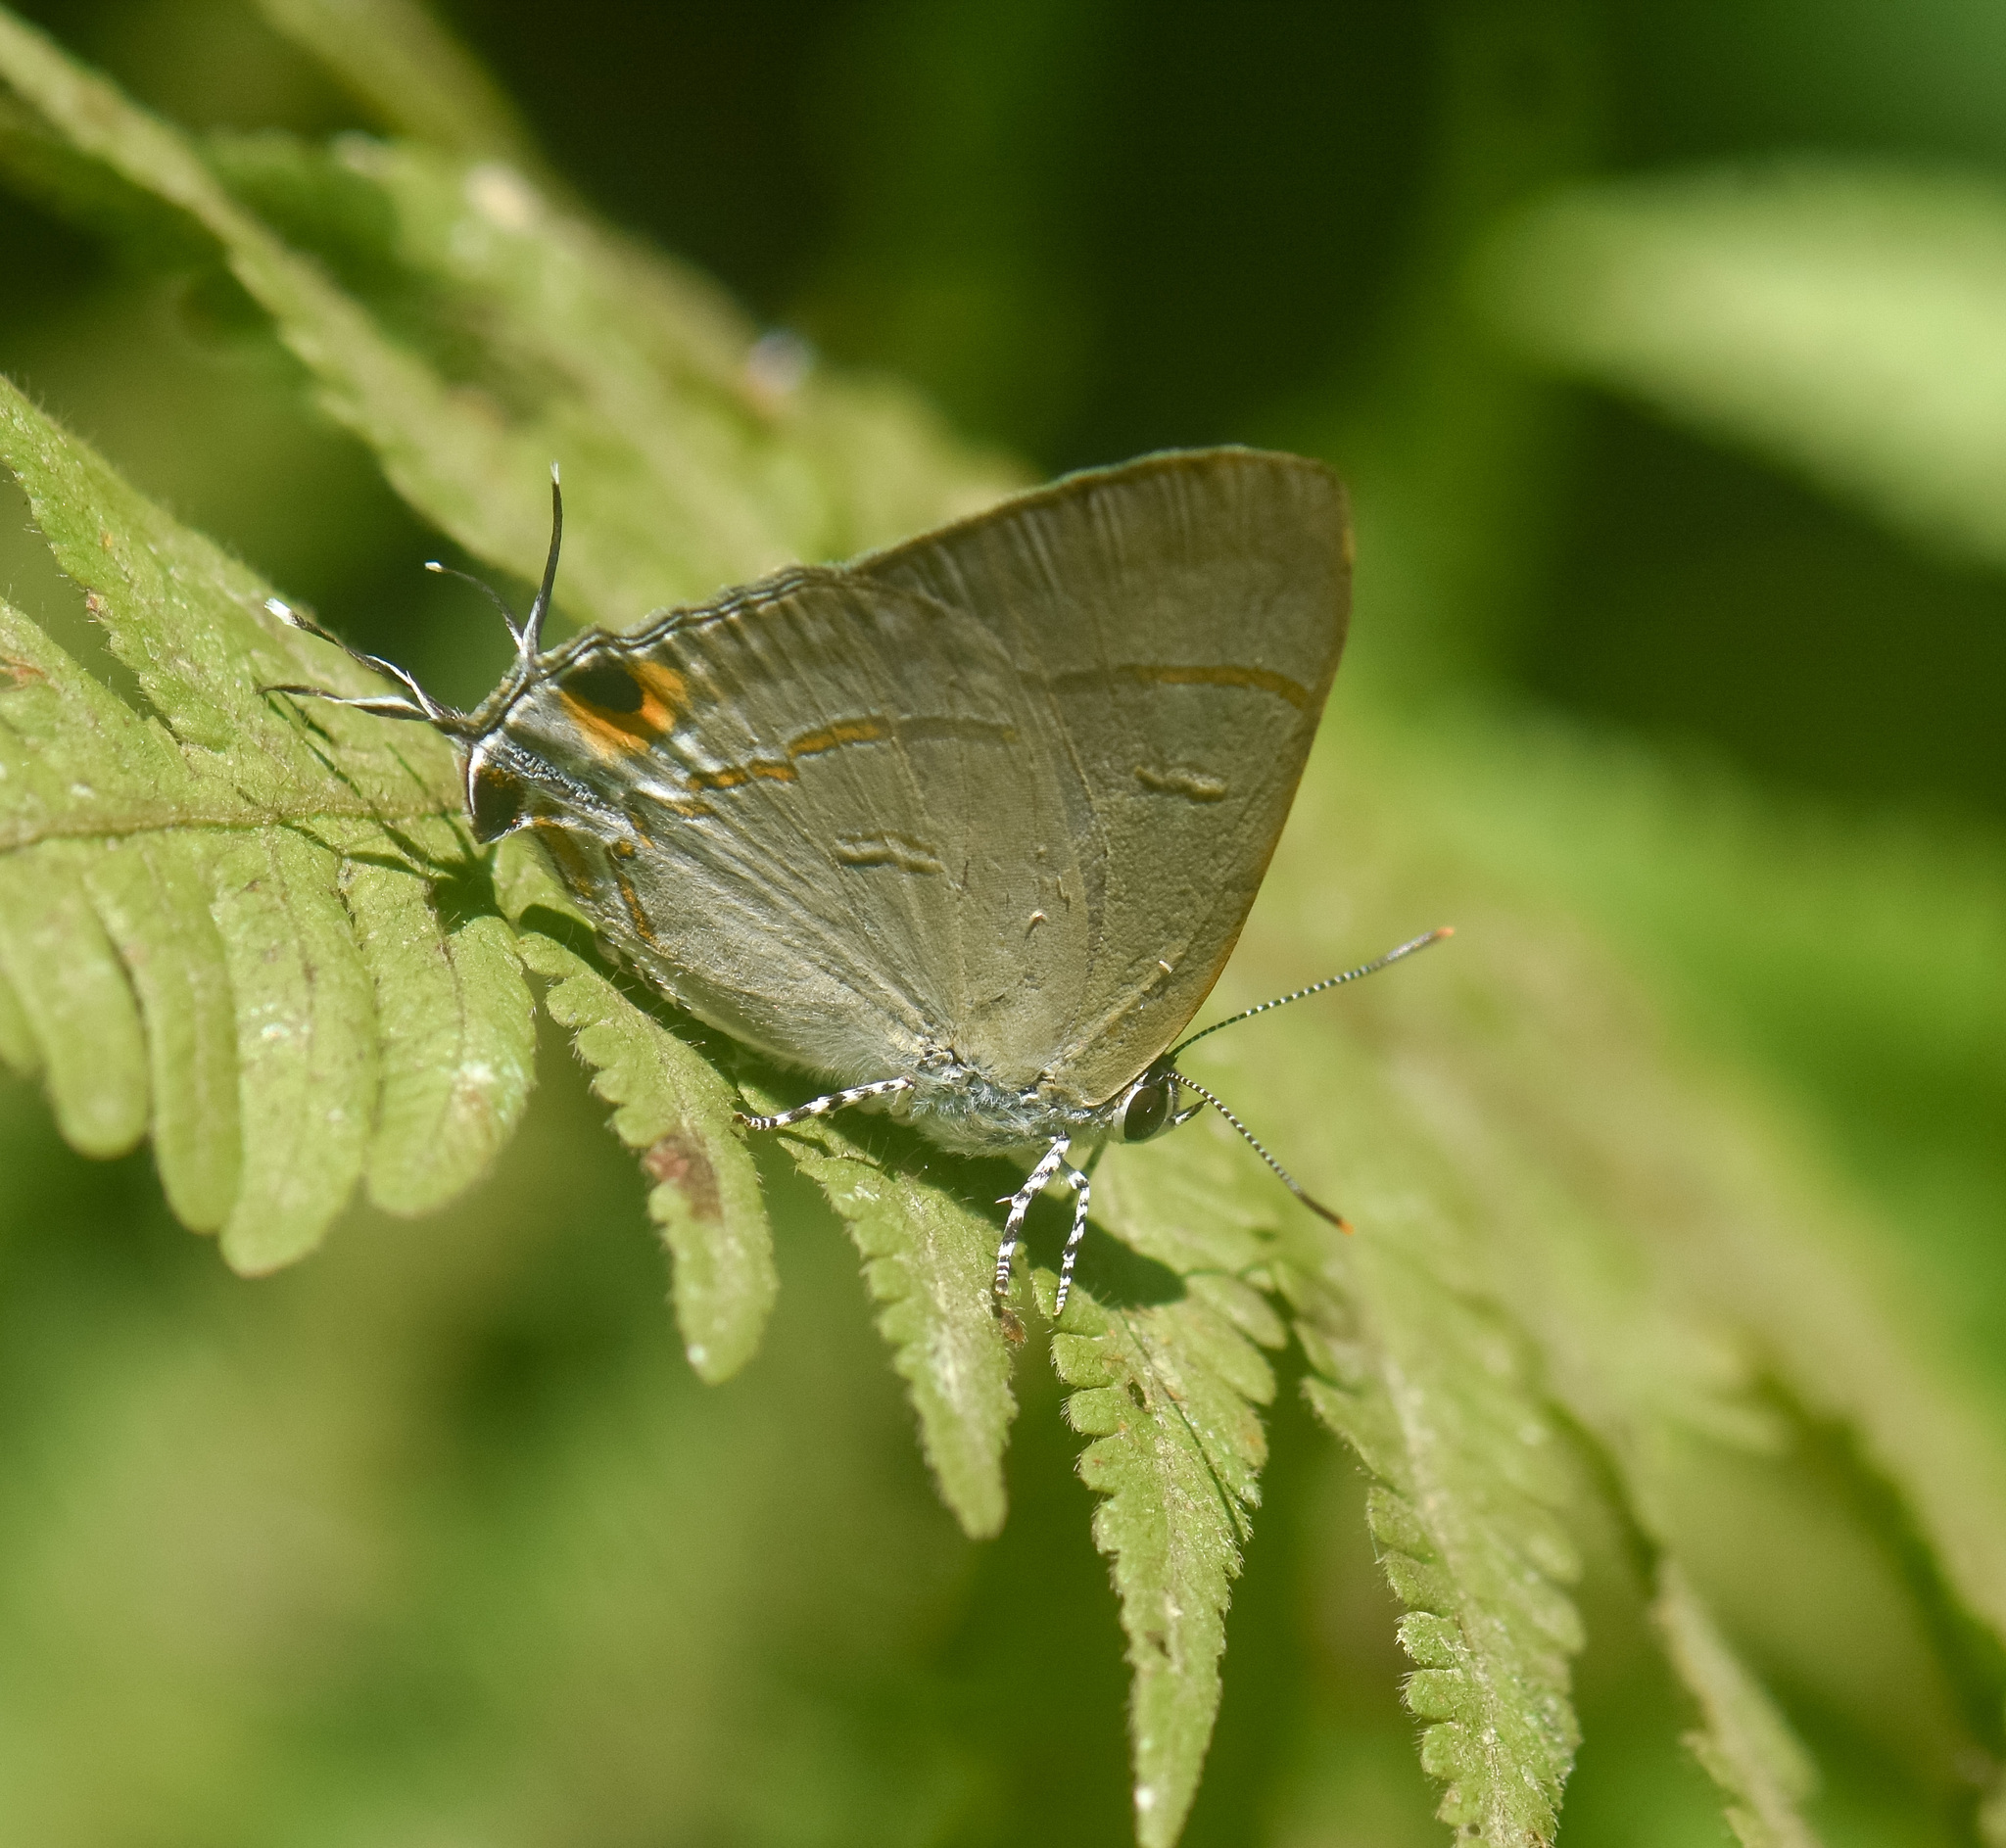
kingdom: Animalia
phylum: Arthropoda
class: Insecta
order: Lepidoptera
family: Lycaenidae
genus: Hypolycaena
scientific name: Hypolycaena erylus
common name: Common tit
